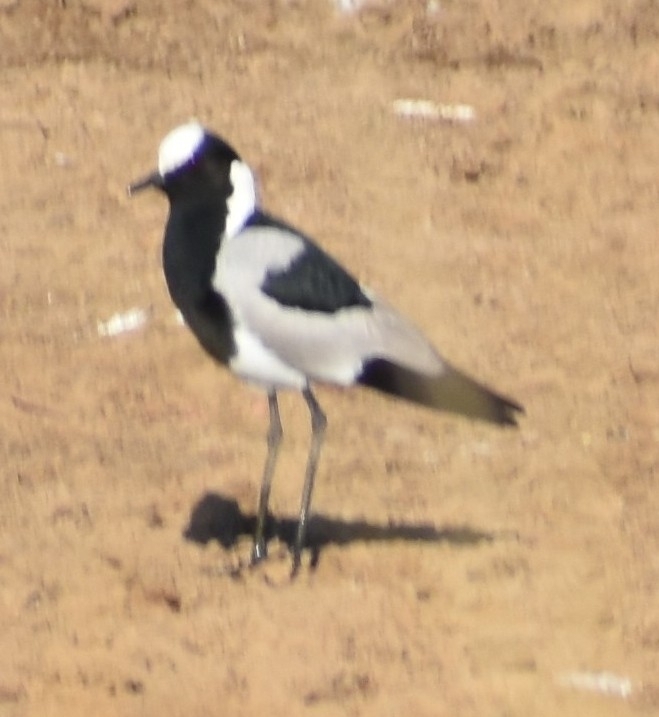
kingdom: Animalia
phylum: Chordata
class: Aves
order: Charadriiformes
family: Charadriidae
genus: Vanellus
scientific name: Vanellus armatus
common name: Blacksmith lapwing
